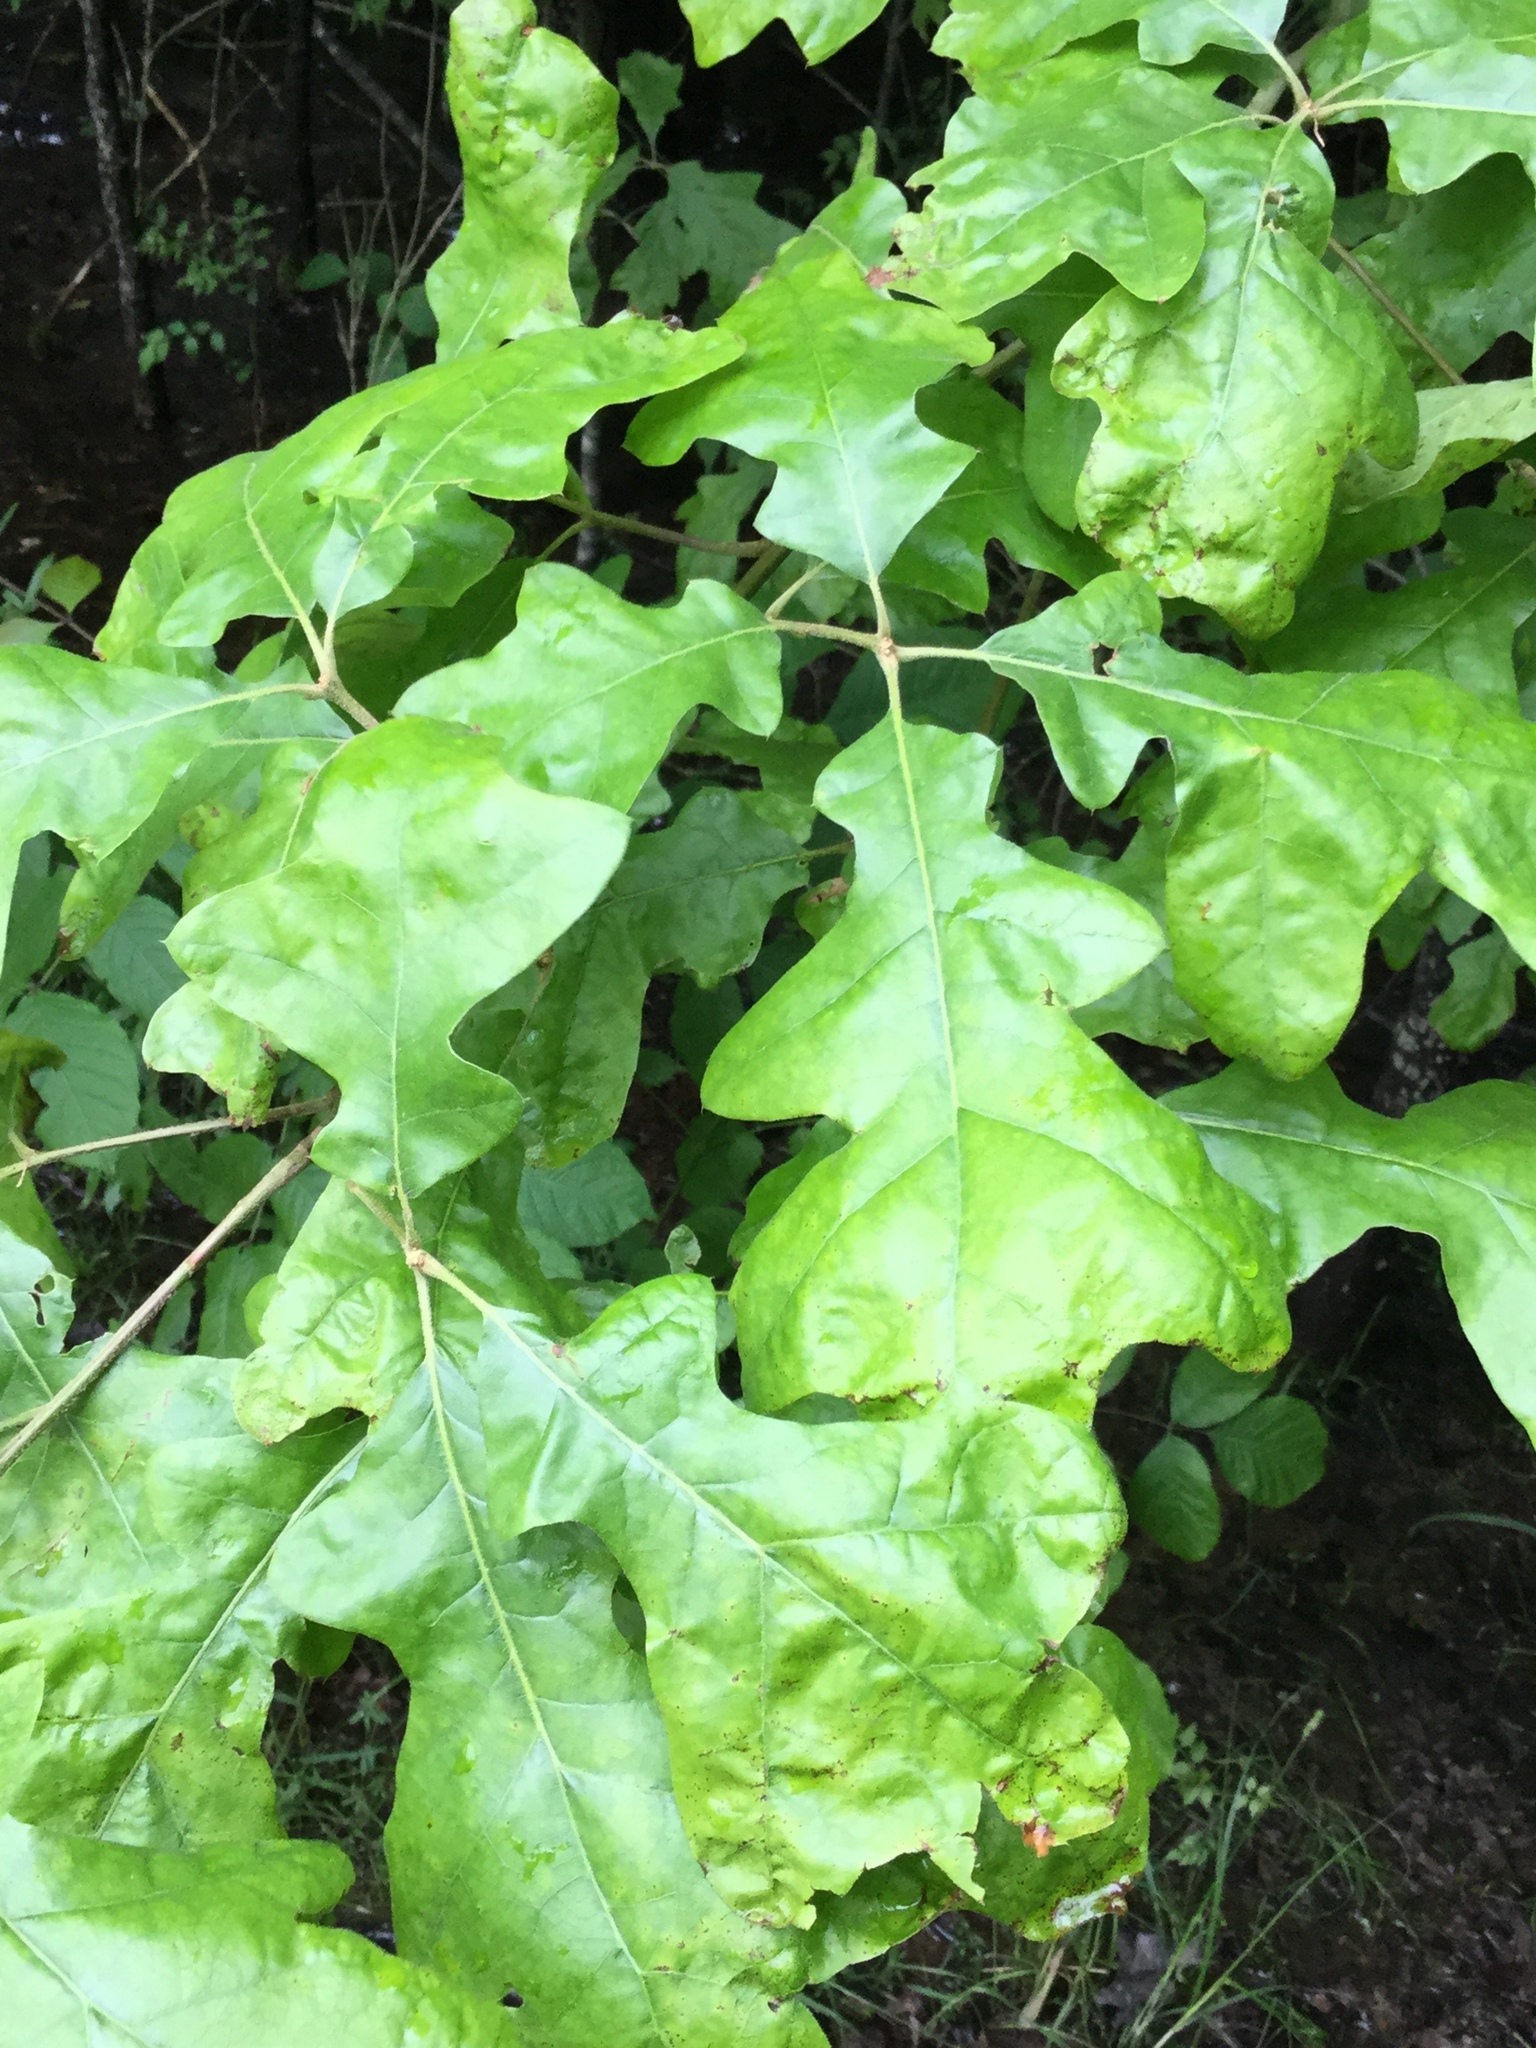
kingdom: Plantae
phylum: Tracheophyta
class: Magnoliopsida
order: Fagales
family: Fagaceae
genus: Quercus
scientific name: Quercus pagoda
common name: Cherrybark oak
